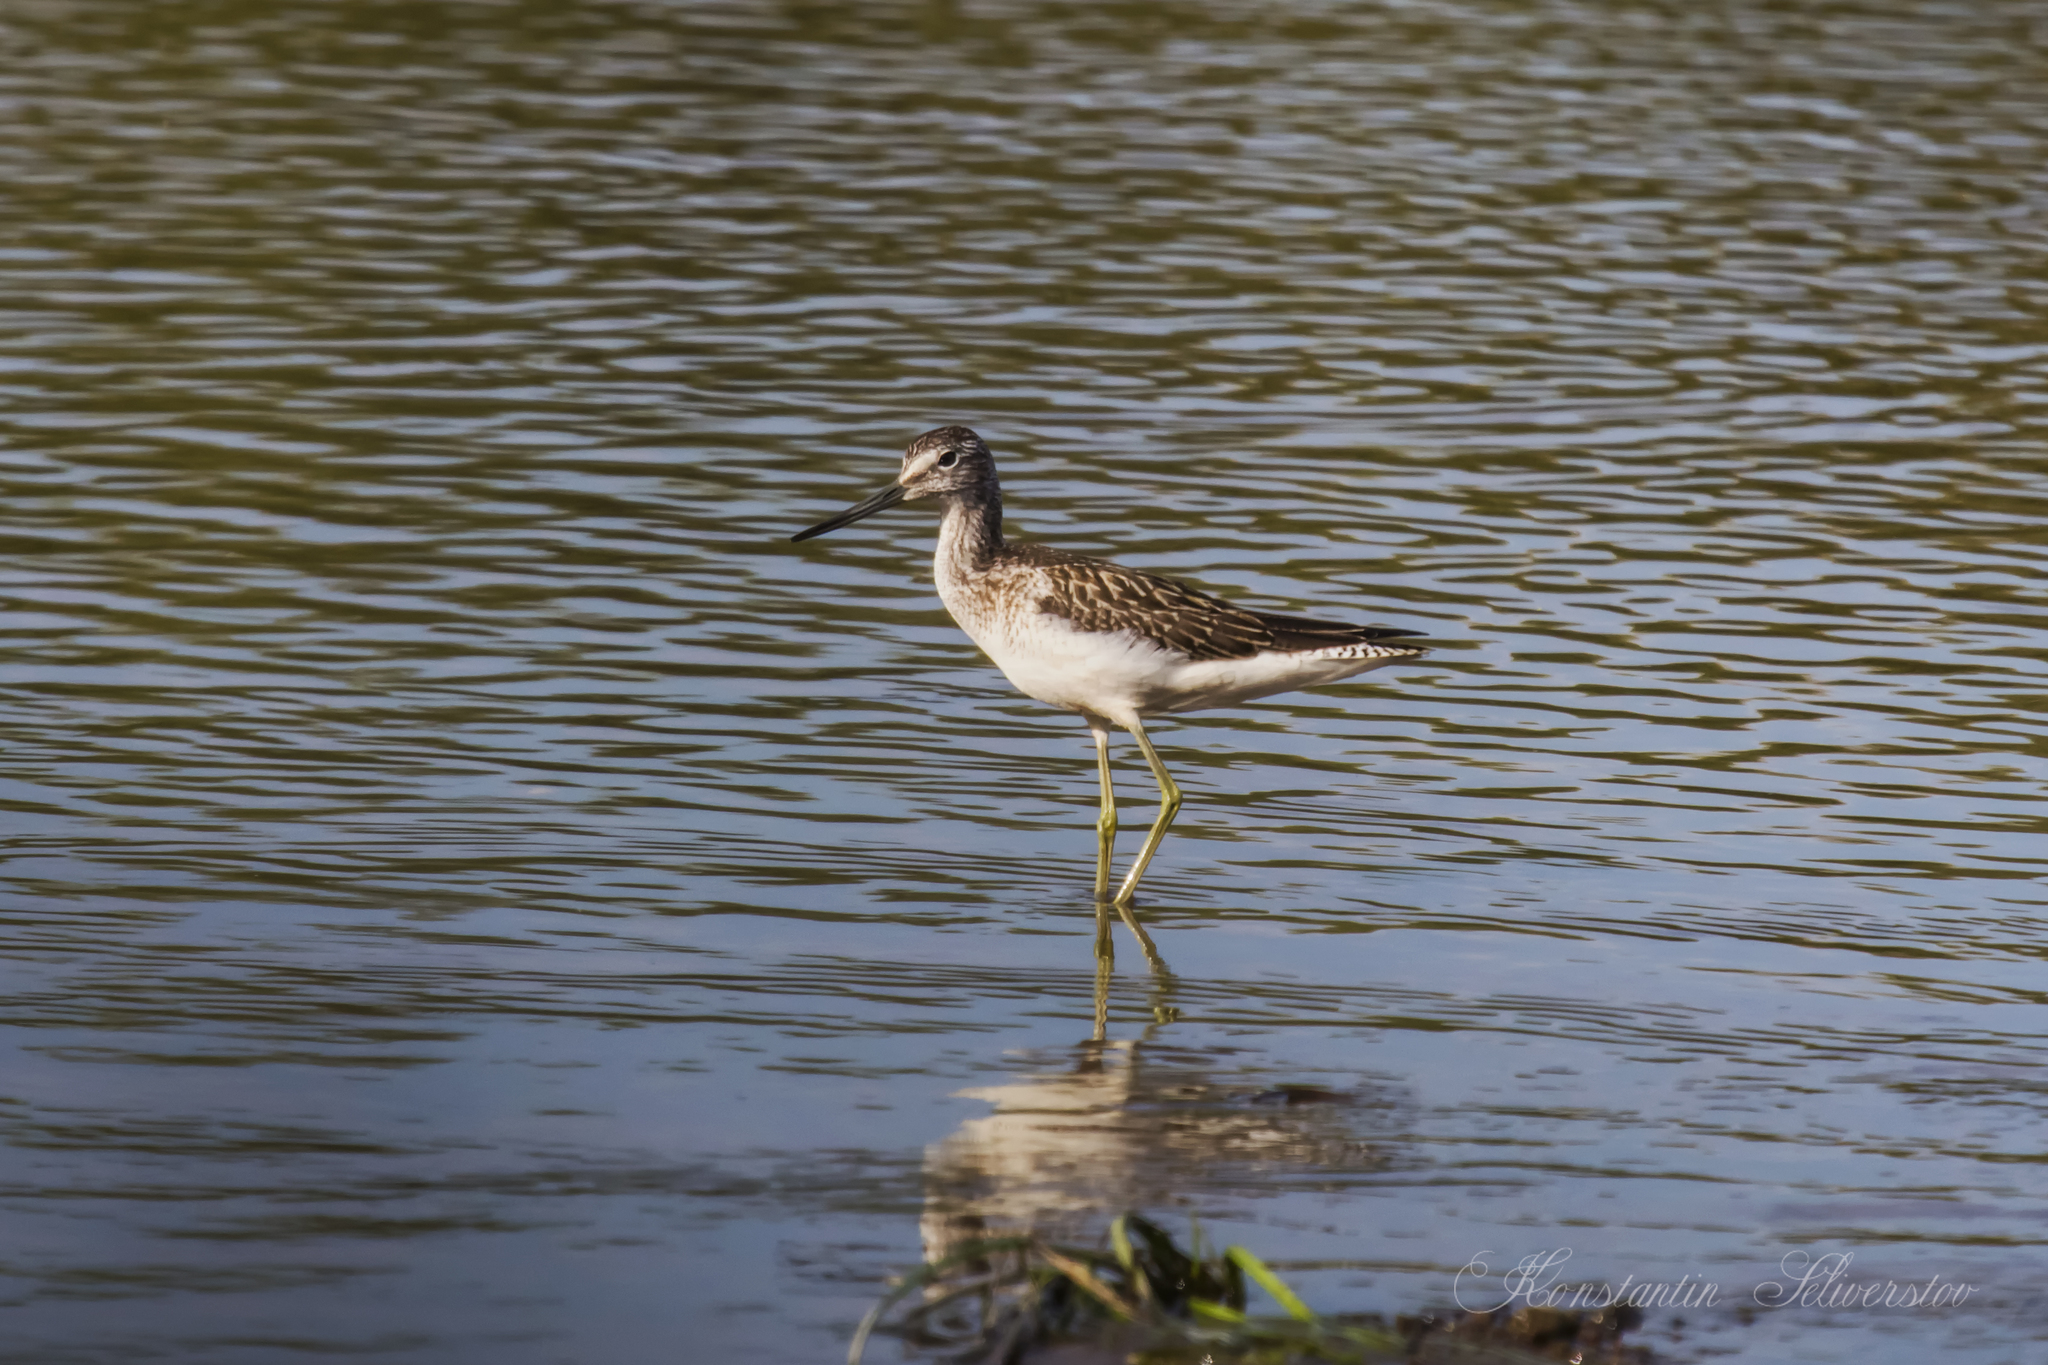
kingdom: Animalia
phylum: Chordata
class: Aves
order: Charadriiformes
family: Scolopacidae
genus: Tringa
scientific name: Tringa nebularia
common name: Common greenshank
